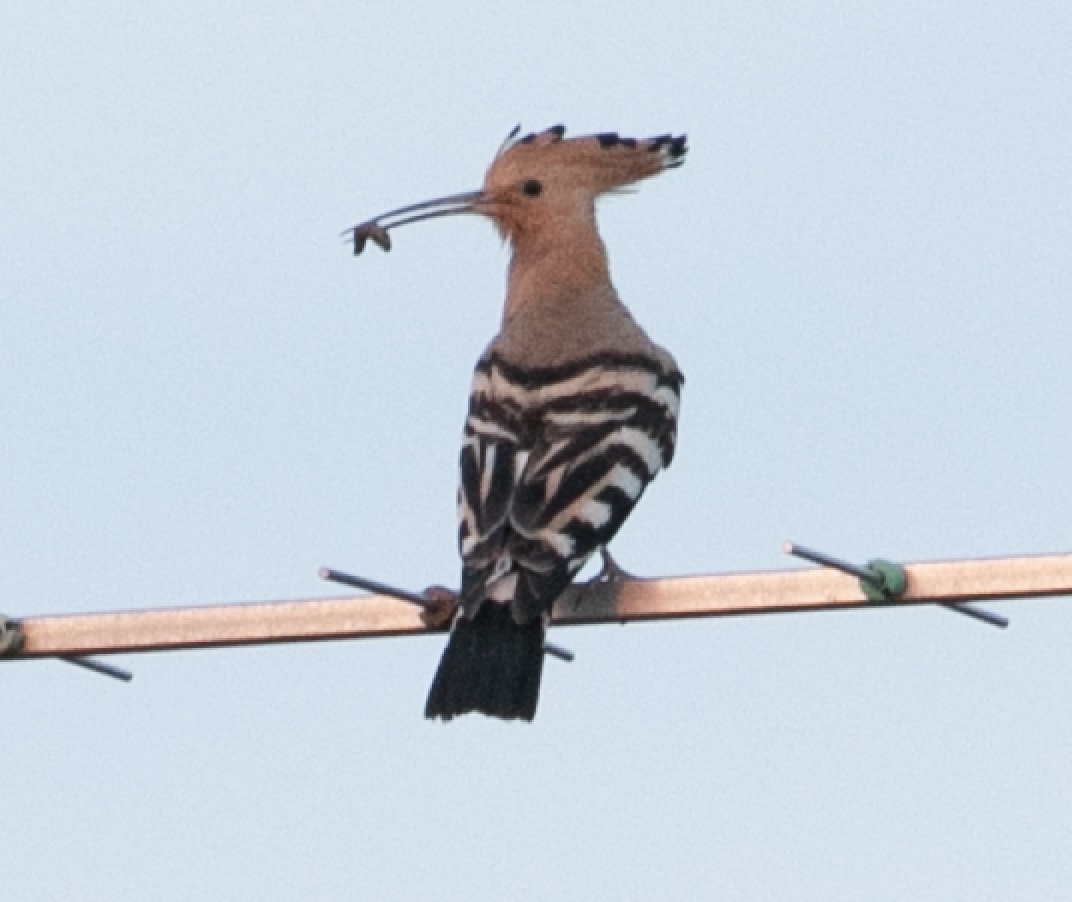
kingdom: Animalia
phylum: Chordata
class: Aves
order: Bucerotiformes
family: Upupidae
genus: Upupa
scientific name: Upupa epops
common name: Eurasian hoopoe
